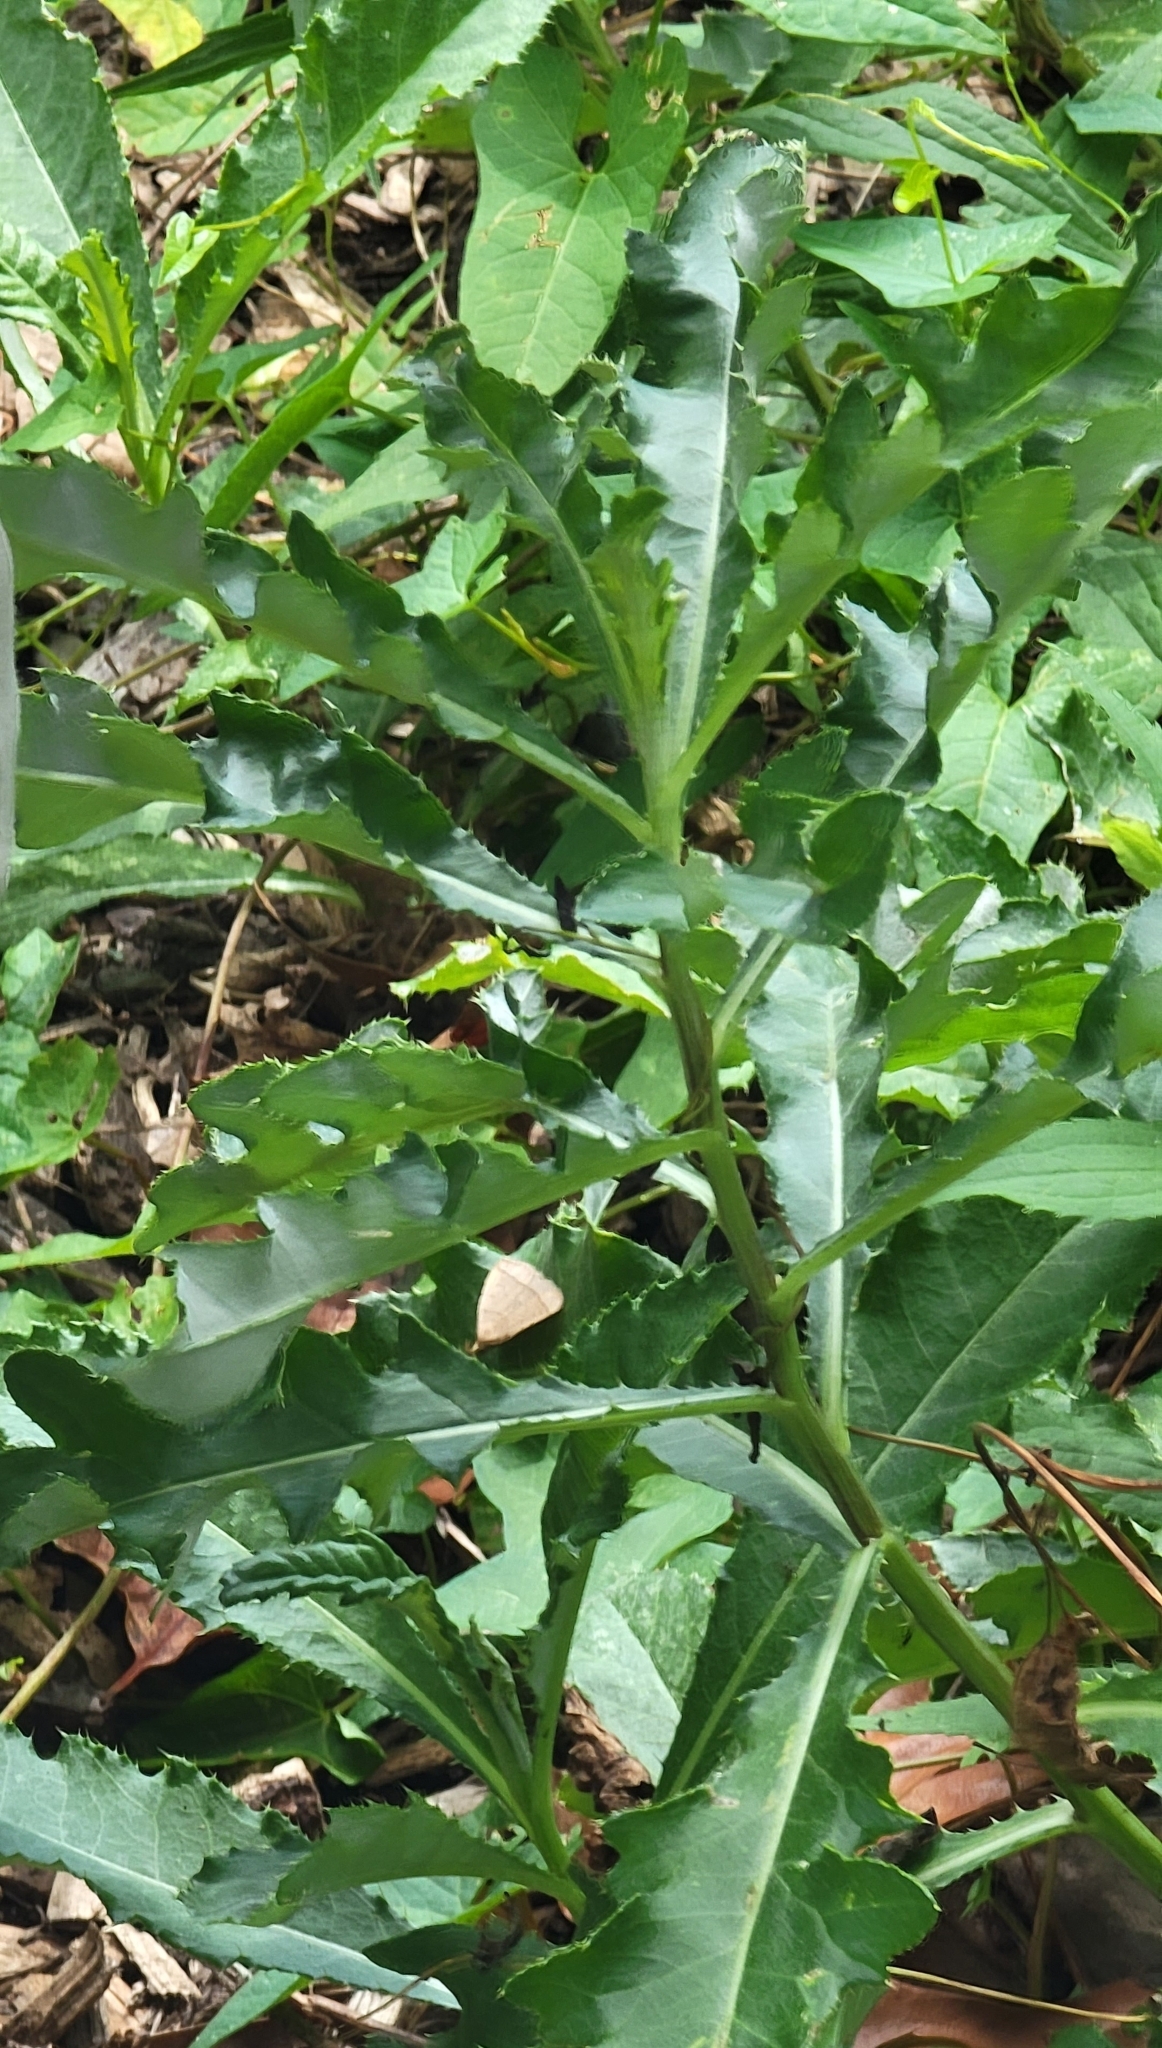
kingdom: Plantae
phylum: Tracheophyta
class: Magnoliopsida
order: Asterales
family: Asteraceae
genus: Cirsium
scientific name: Cirsium arvense
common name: Creeping thistle
